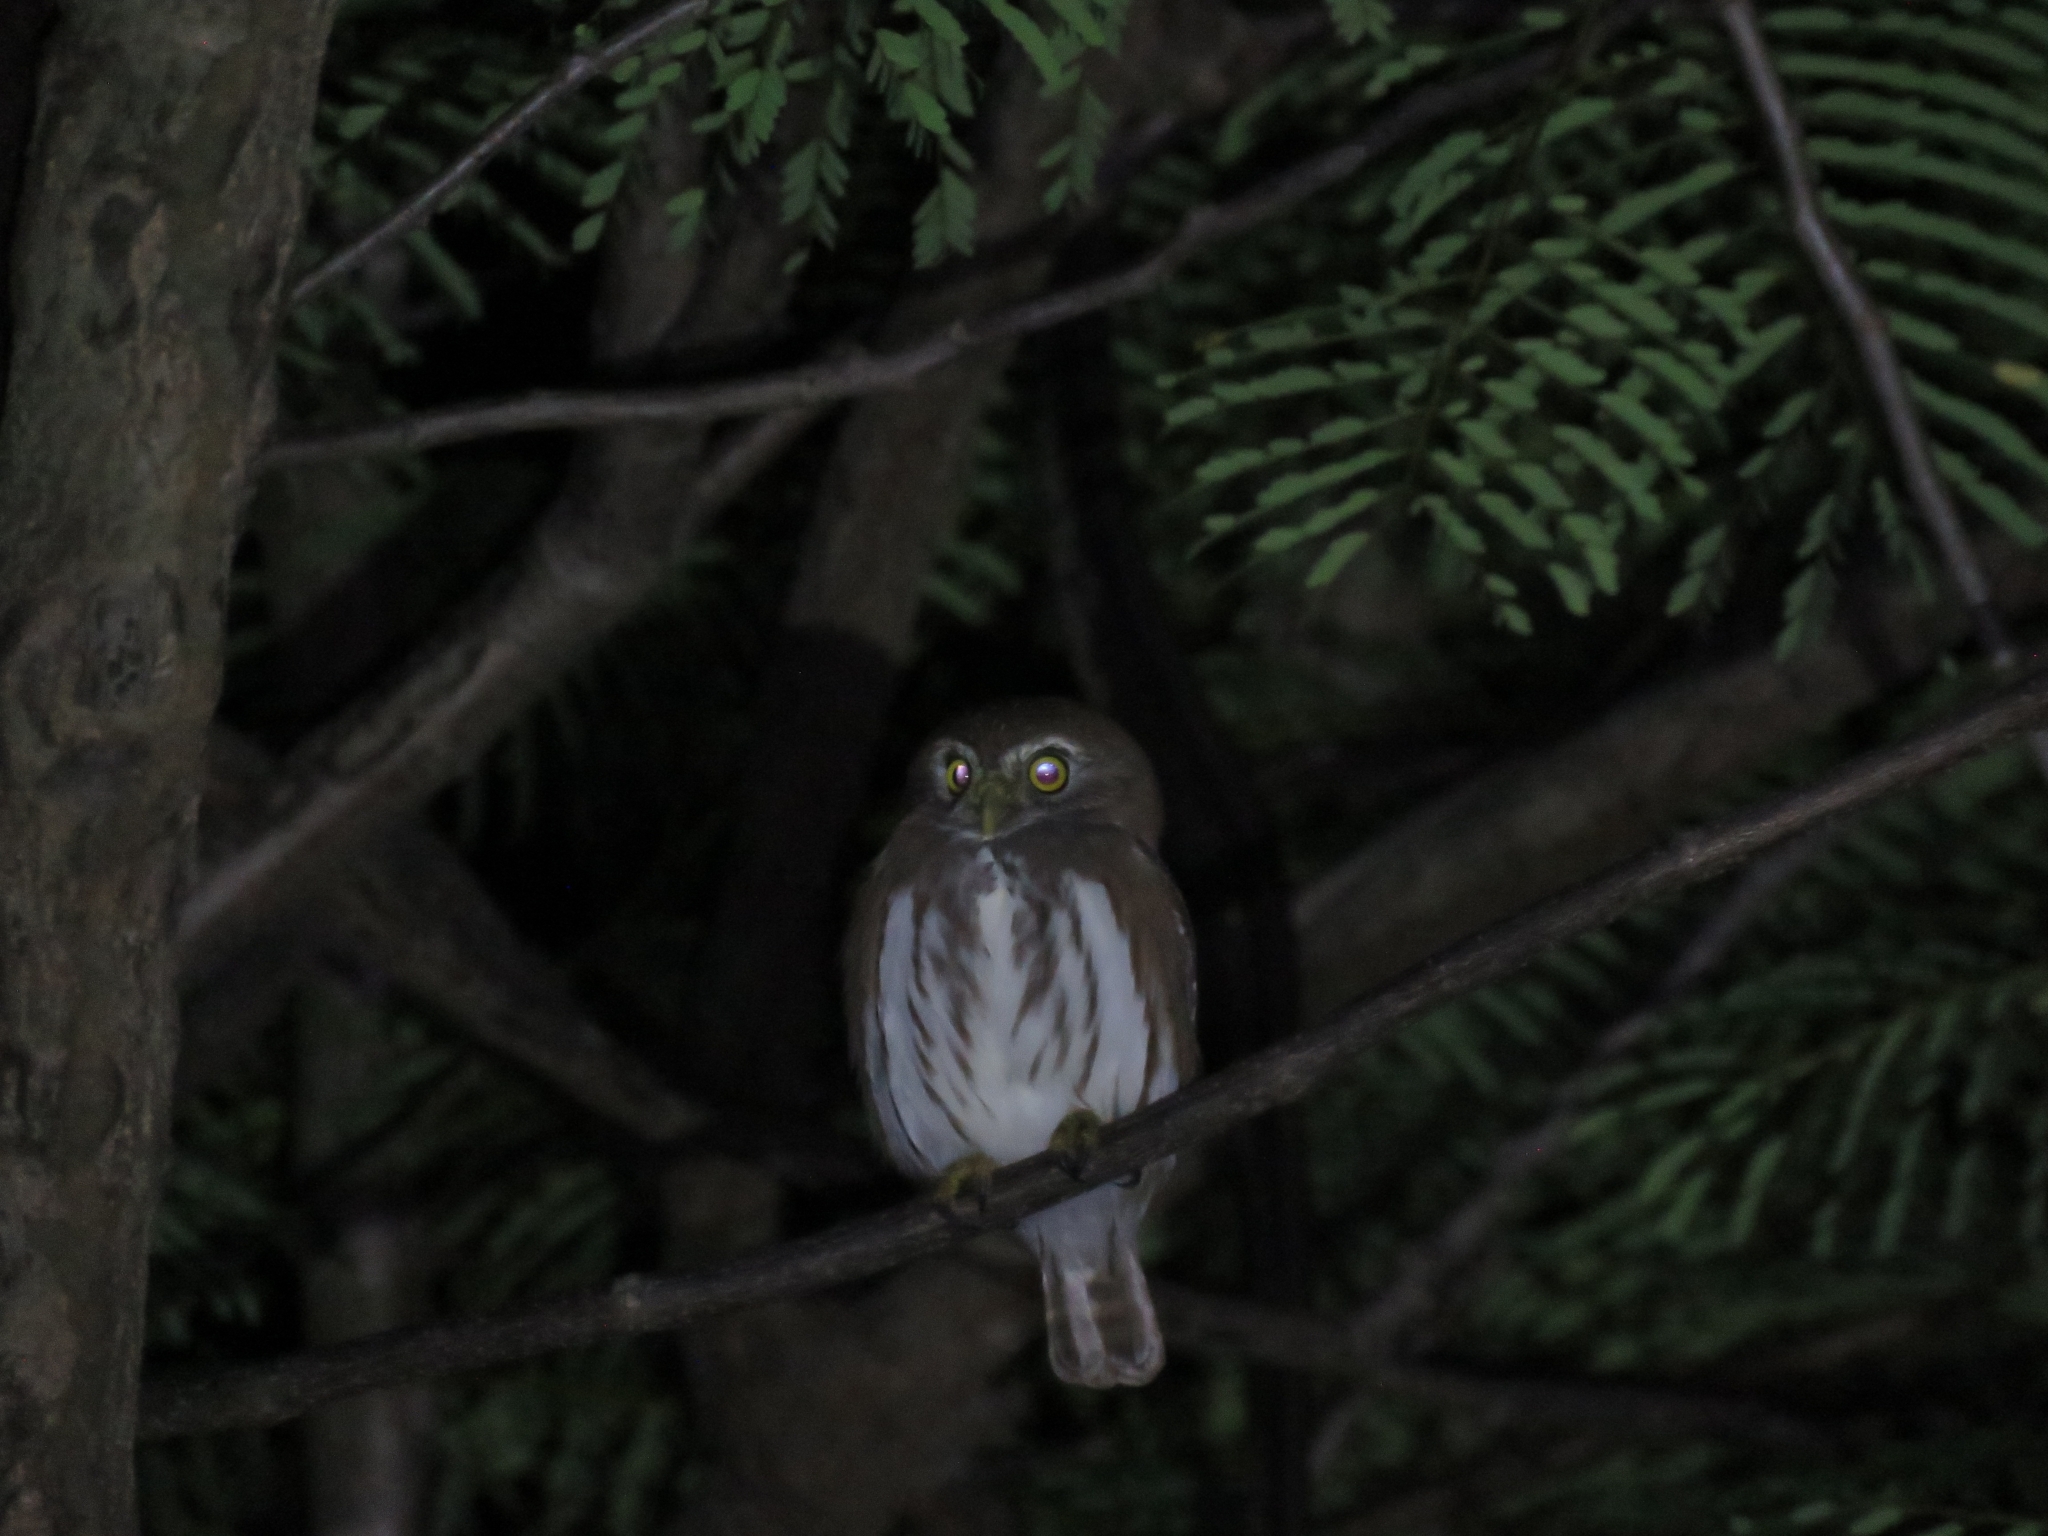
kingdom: Animalia
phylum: Chordata
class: Aves
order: Strigiformes
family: Strigidae
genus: Glaucidium
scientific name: Glaucidium brasilianum
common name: Ferruginous pygmy-owl
